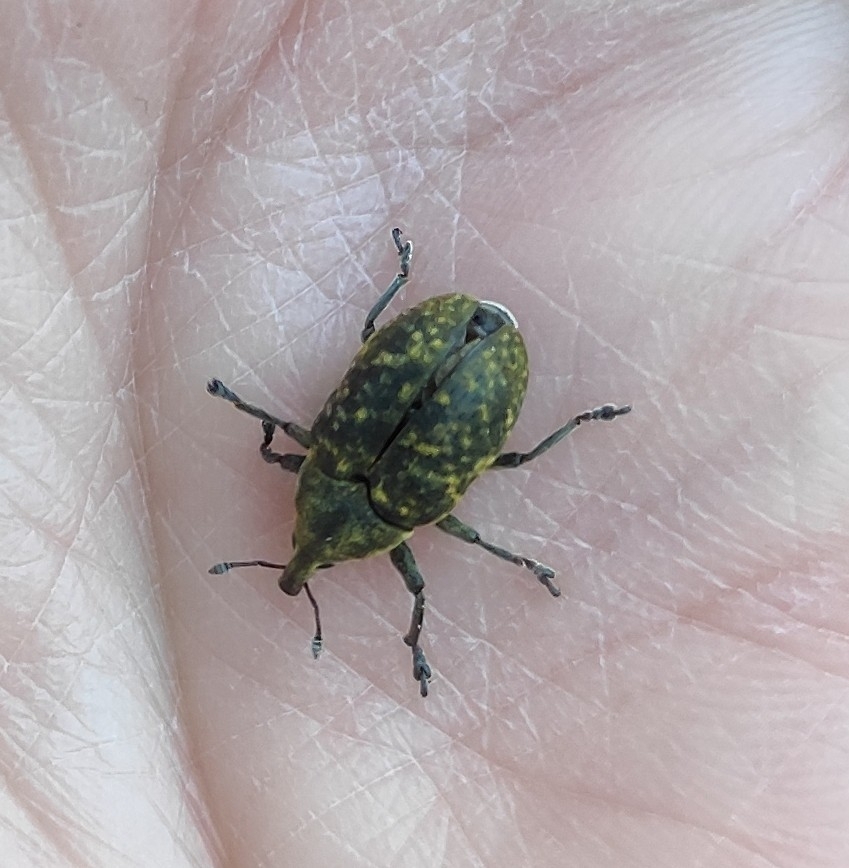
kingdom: Animalia
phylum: Arthropoda
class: Insecta
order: Coleoptera
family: Curculionidae
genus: Larinus
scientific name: Larinus sturnus
